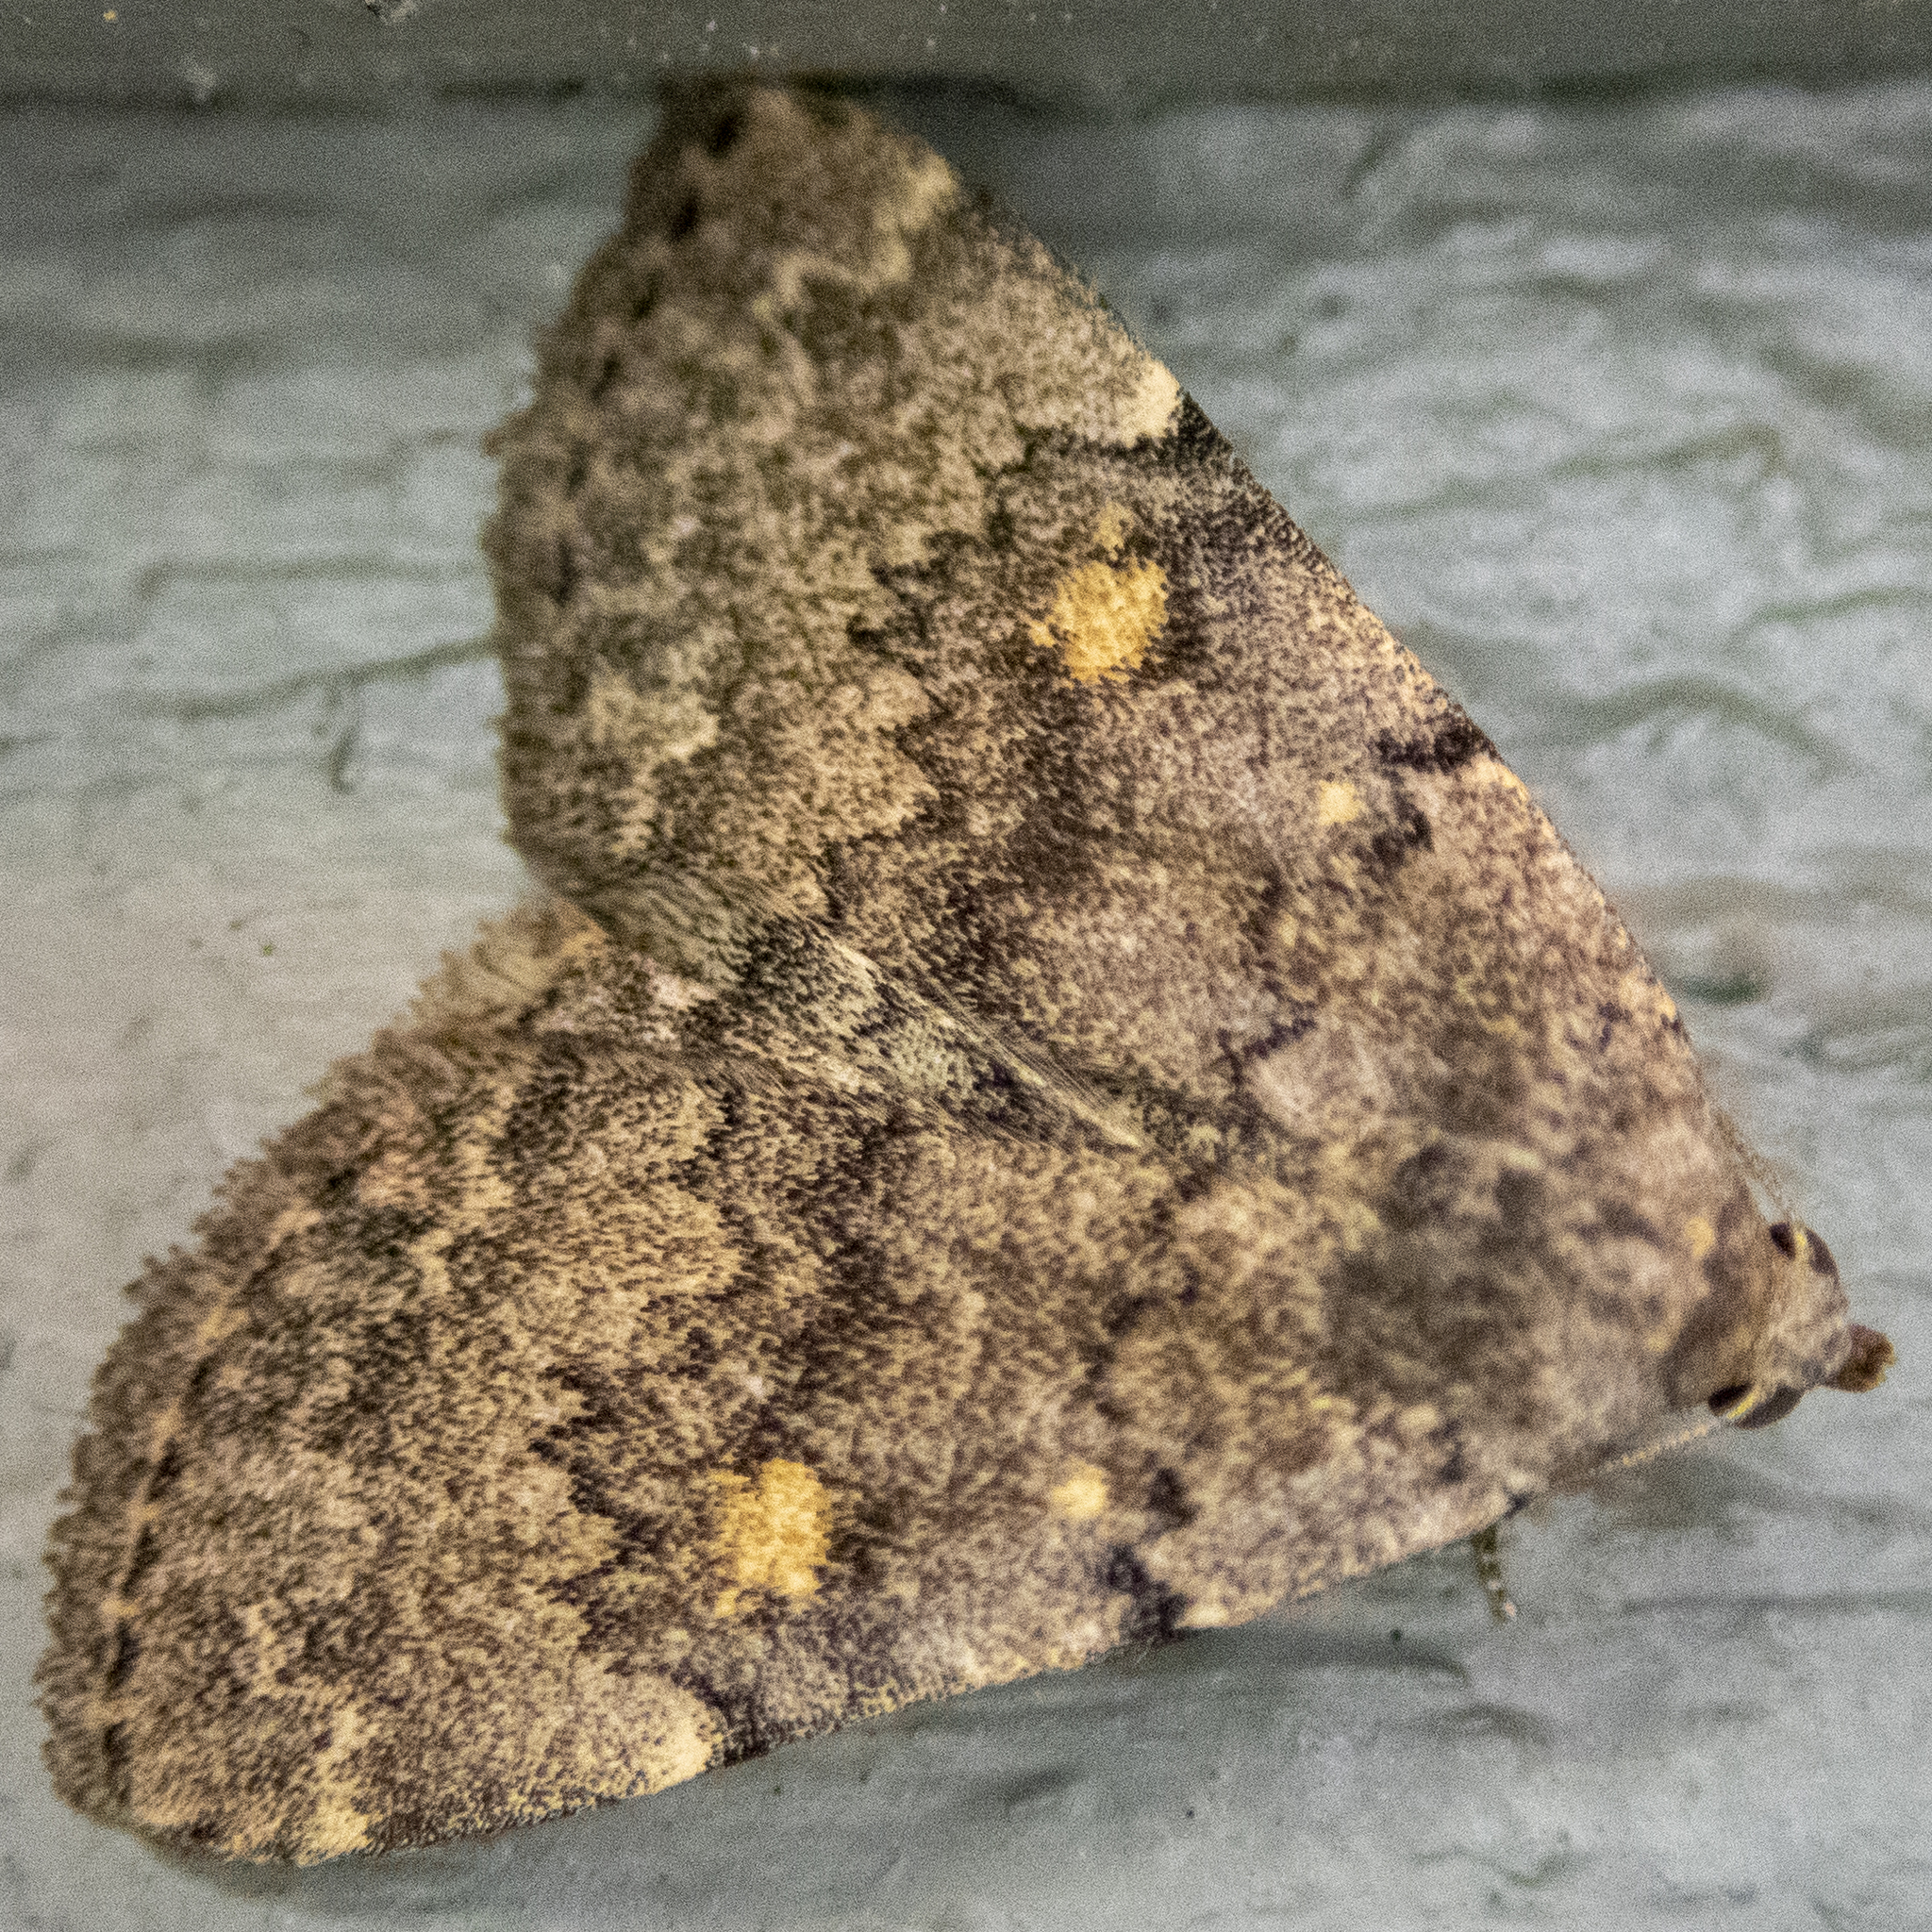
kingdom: Animalia
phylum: Arthropoda
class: Insecta
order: Lepidoptera
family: Erebidae
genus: Idia
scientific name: Idia aemula
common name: Common idia moth
